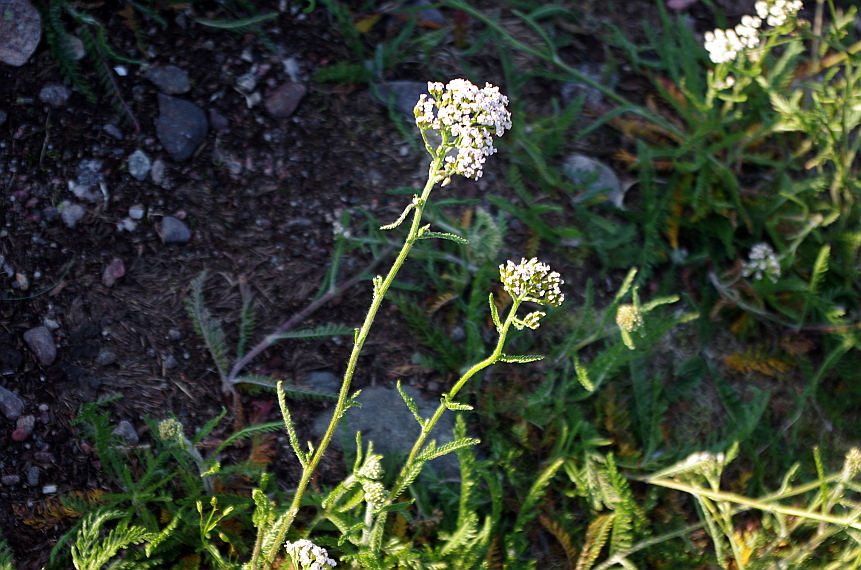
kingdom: Plantae
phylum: Tracheophyta
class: Magnoliopsida
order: Asterales
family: Asteraceae
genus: Achillea
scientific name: Achillea millefolium
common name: Yarrow
